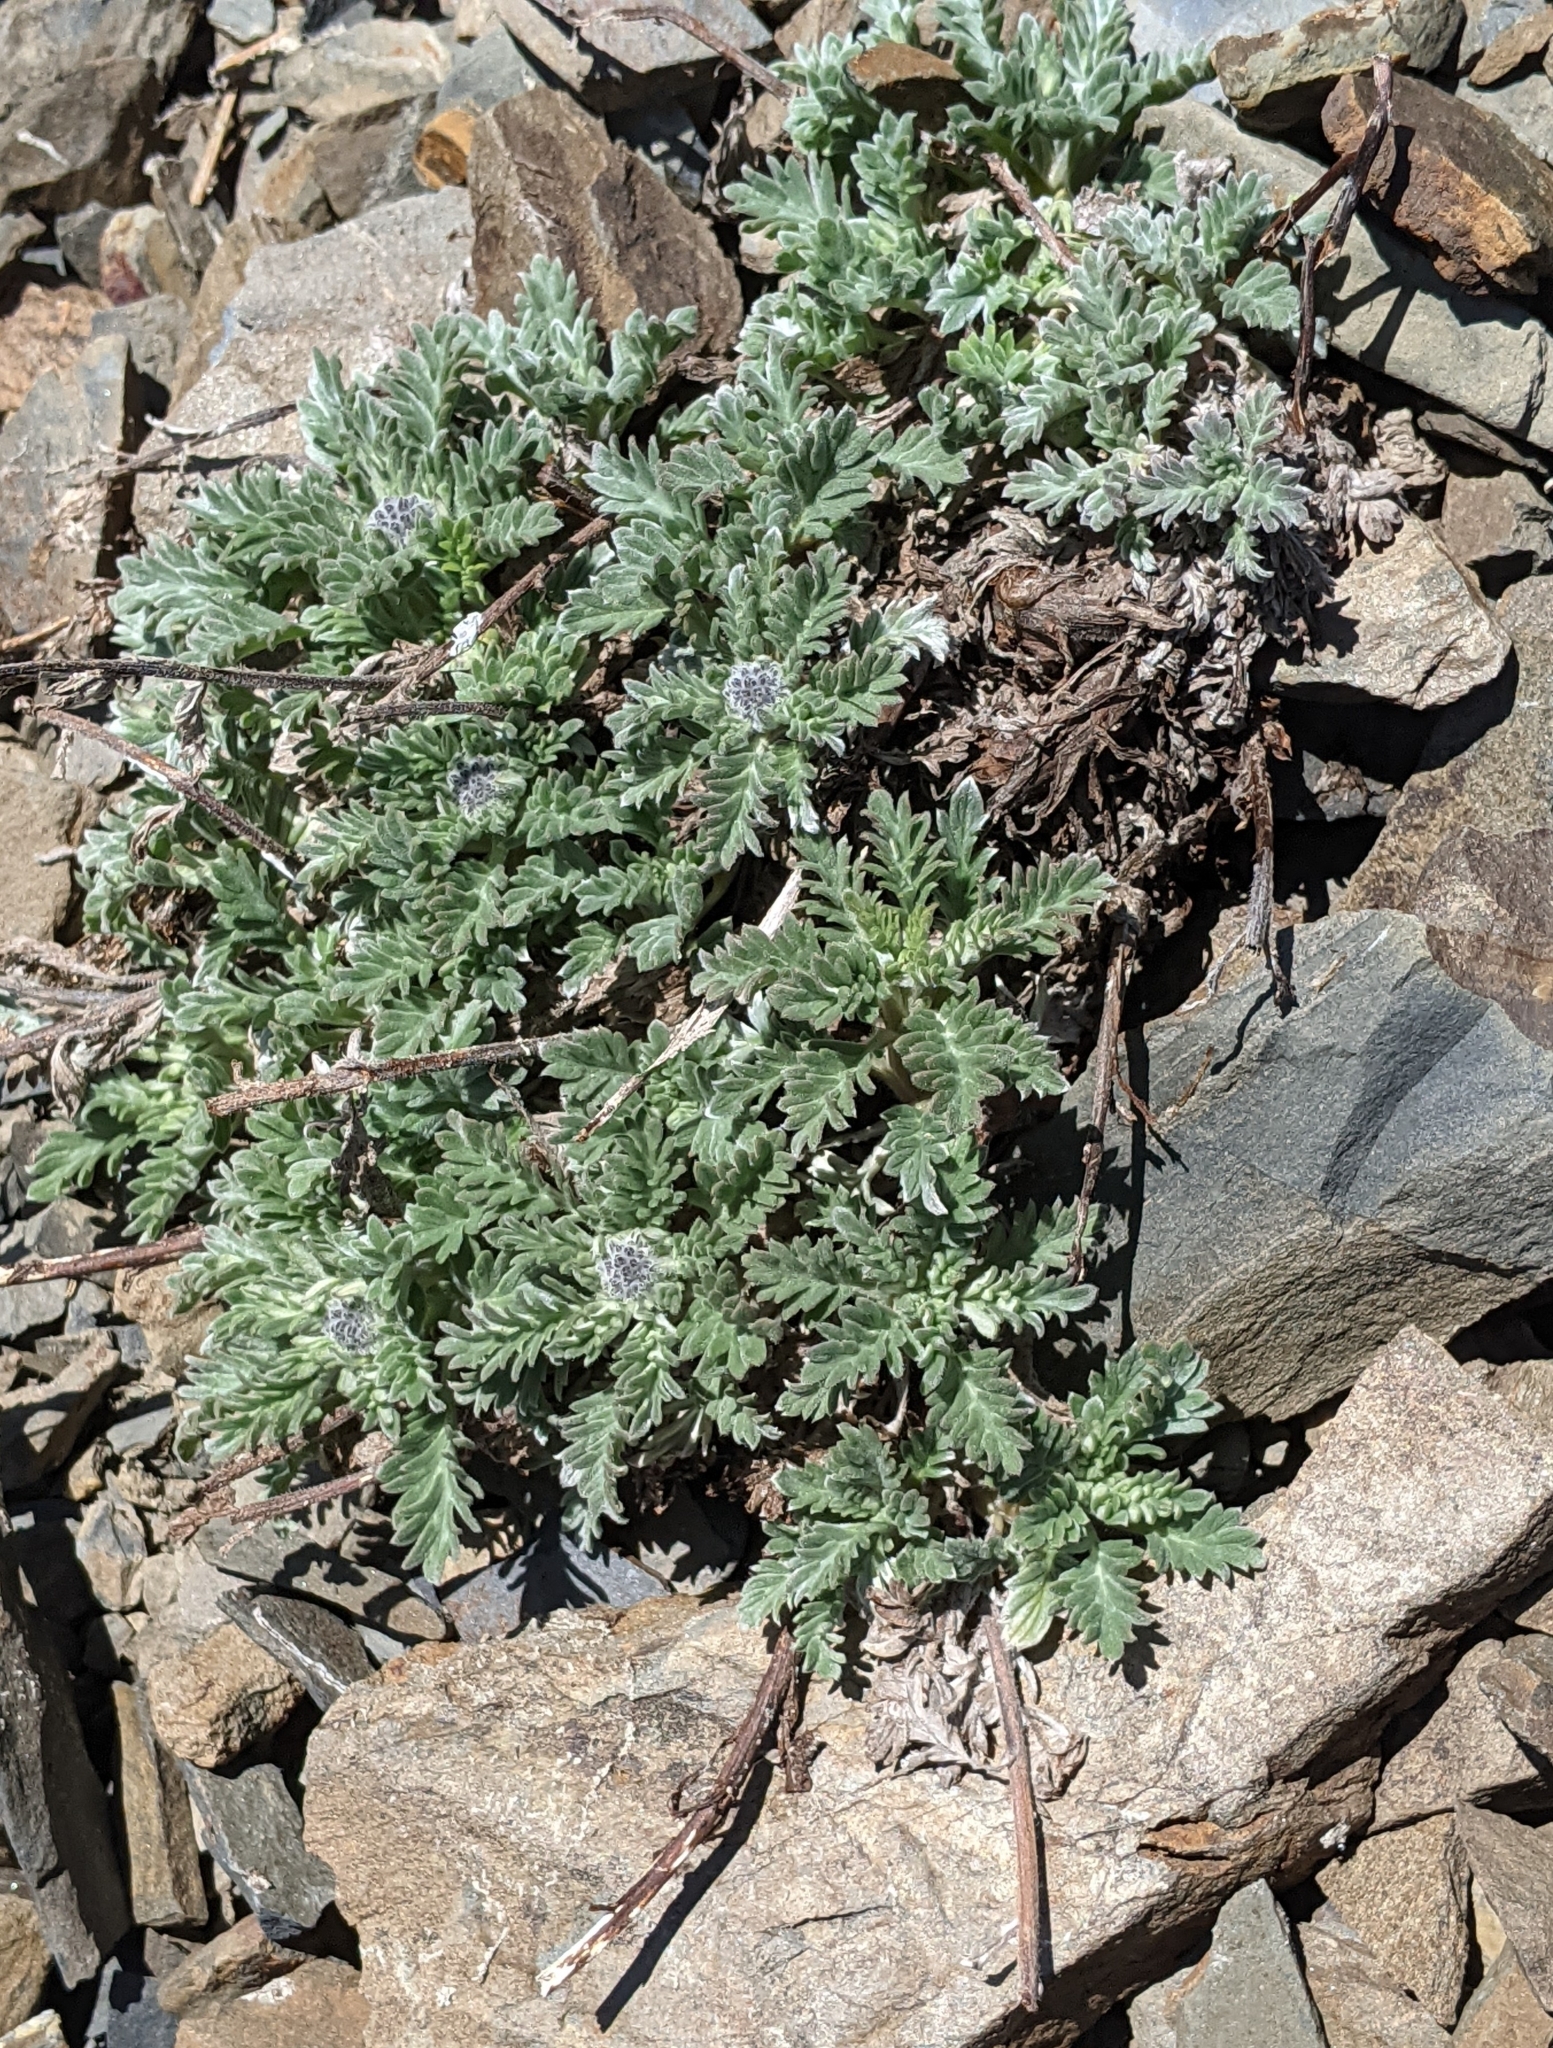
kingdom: Plantae
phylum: Tracheophyta
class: Magnoliopsida
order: Boraginales
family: Hydrophyllaceae
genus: Phacelia
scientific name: Phacelia sericea
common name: Silky phacelia
